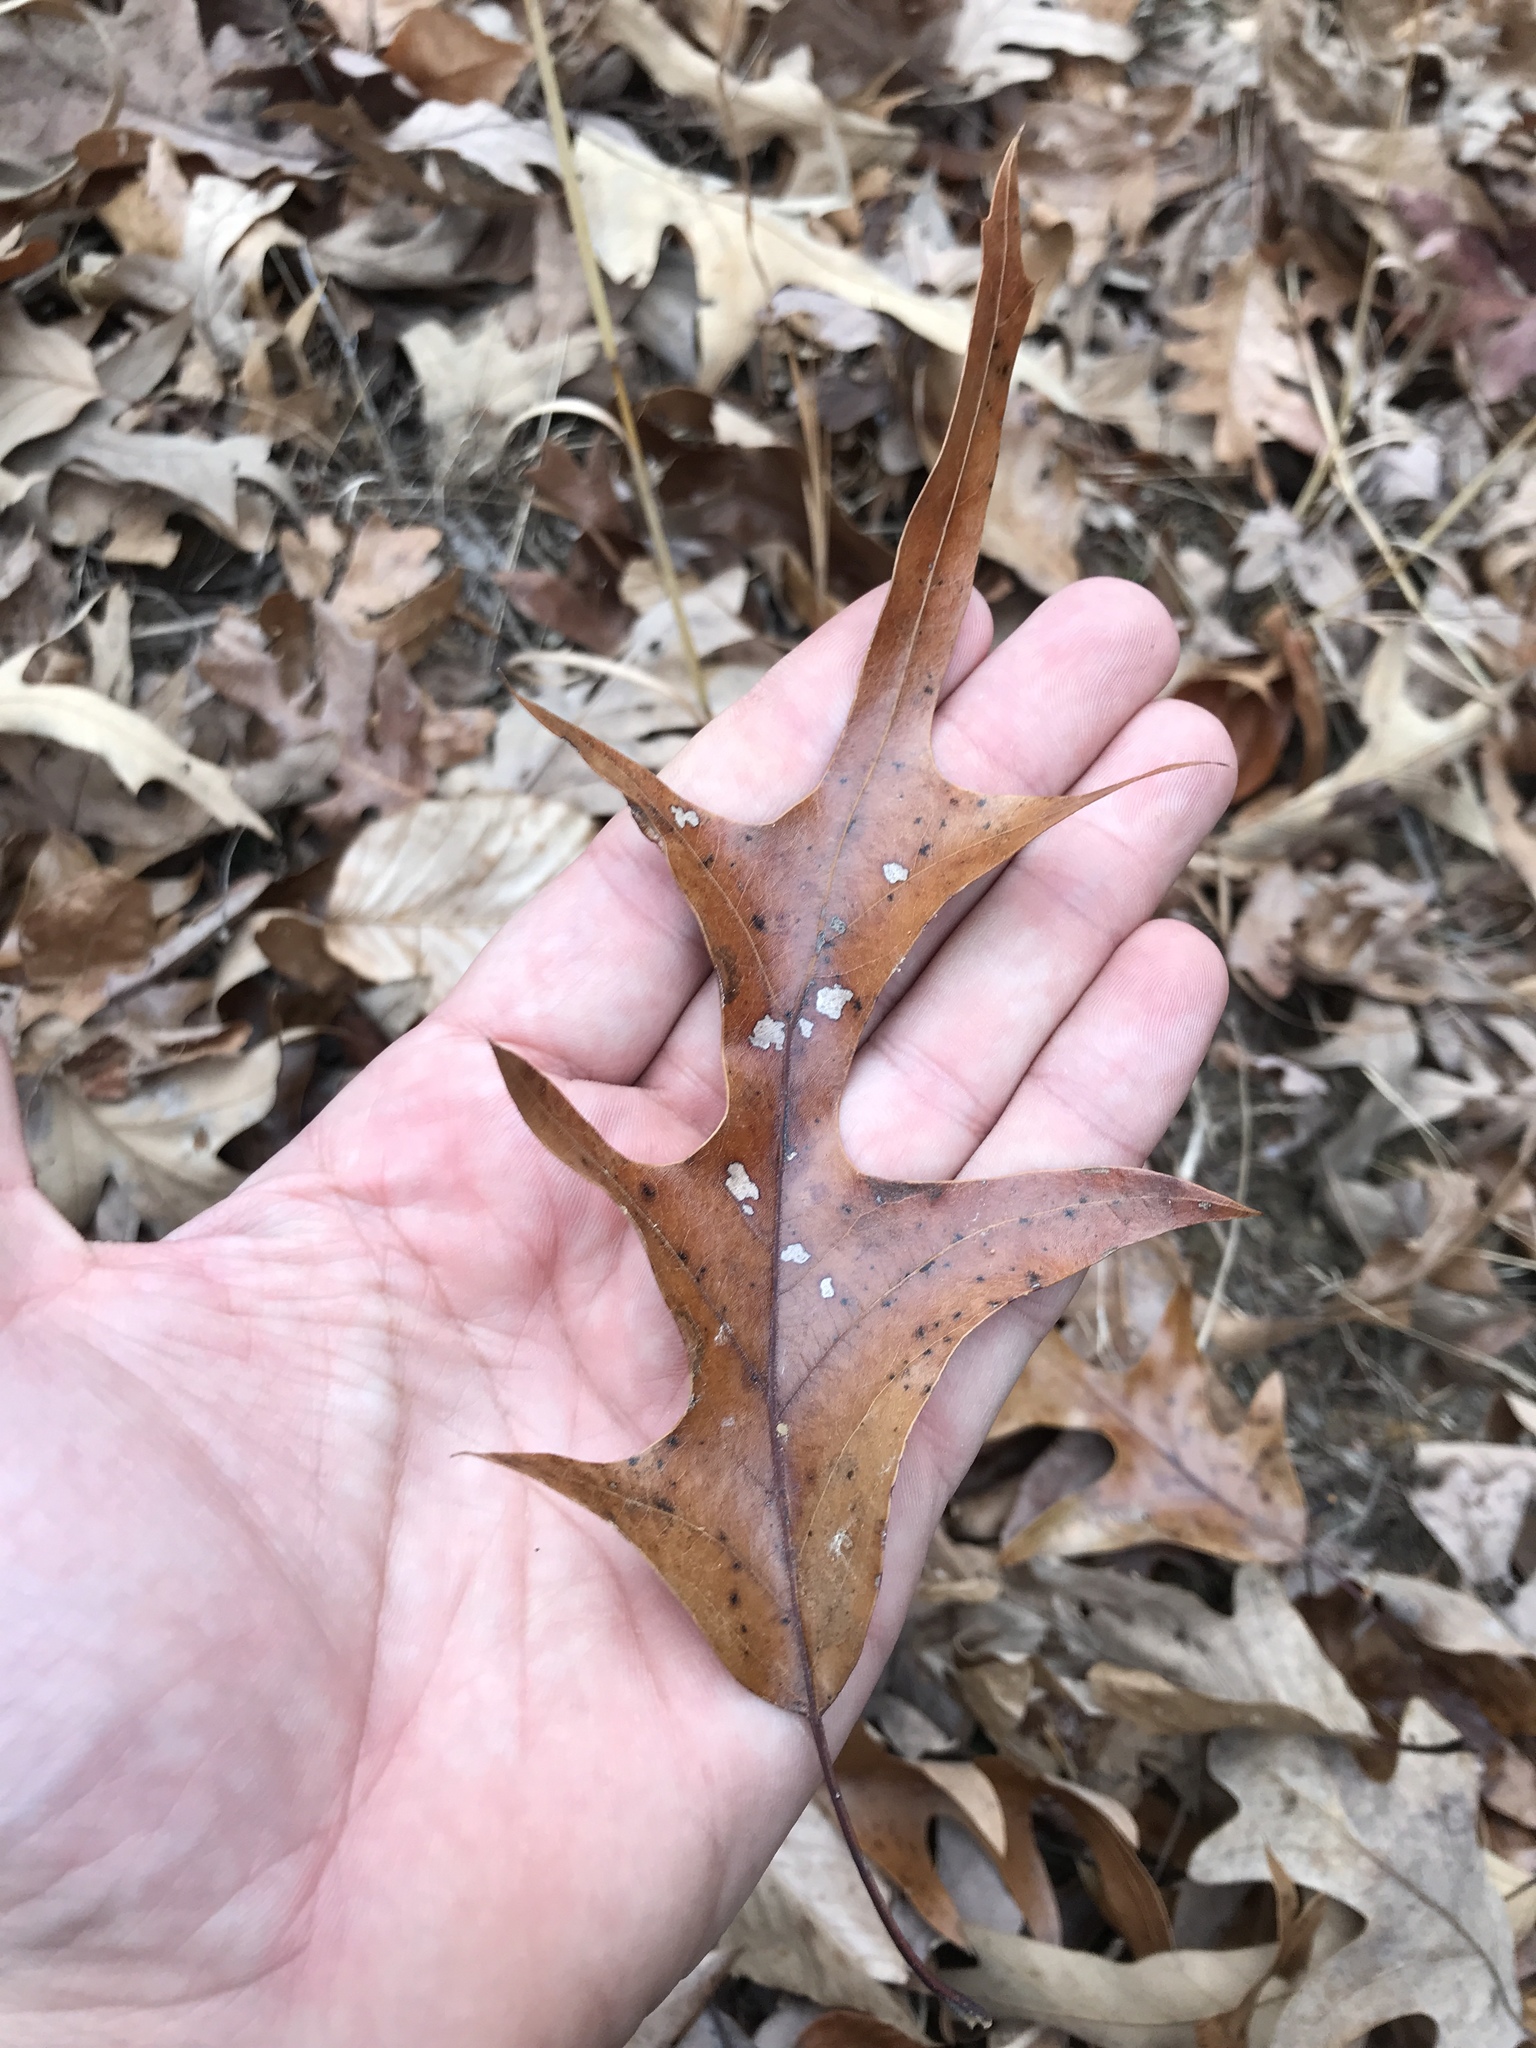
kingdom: Plantae
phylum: Tracheophyta
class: Magnoliopsida
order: Fagales
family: Fagaceae
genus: Quercus
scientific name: Quercus falcata
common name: Southern red oak
